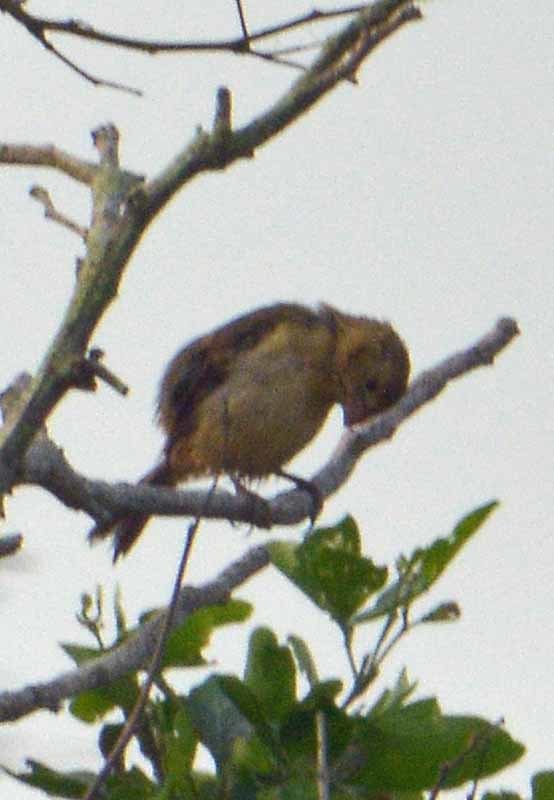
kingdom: Animalia
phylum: Chordata
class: Aves
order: Passeriformes
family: Thraupidae
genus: Sporophila
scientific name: Sporophila morelleti
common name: Morelet's seedeater
